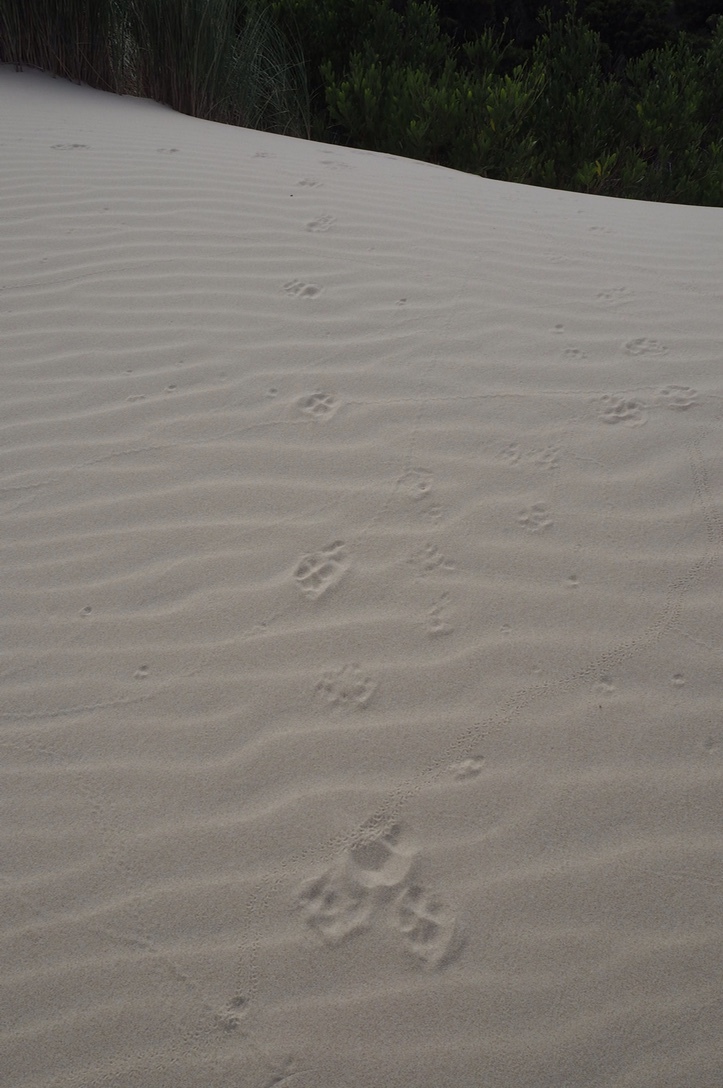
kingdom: Animalia
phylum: Chordata
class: Mammalia
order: Carnivora
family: Canidae
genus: Canis
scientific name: Canis lupus
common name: Gray wolf
